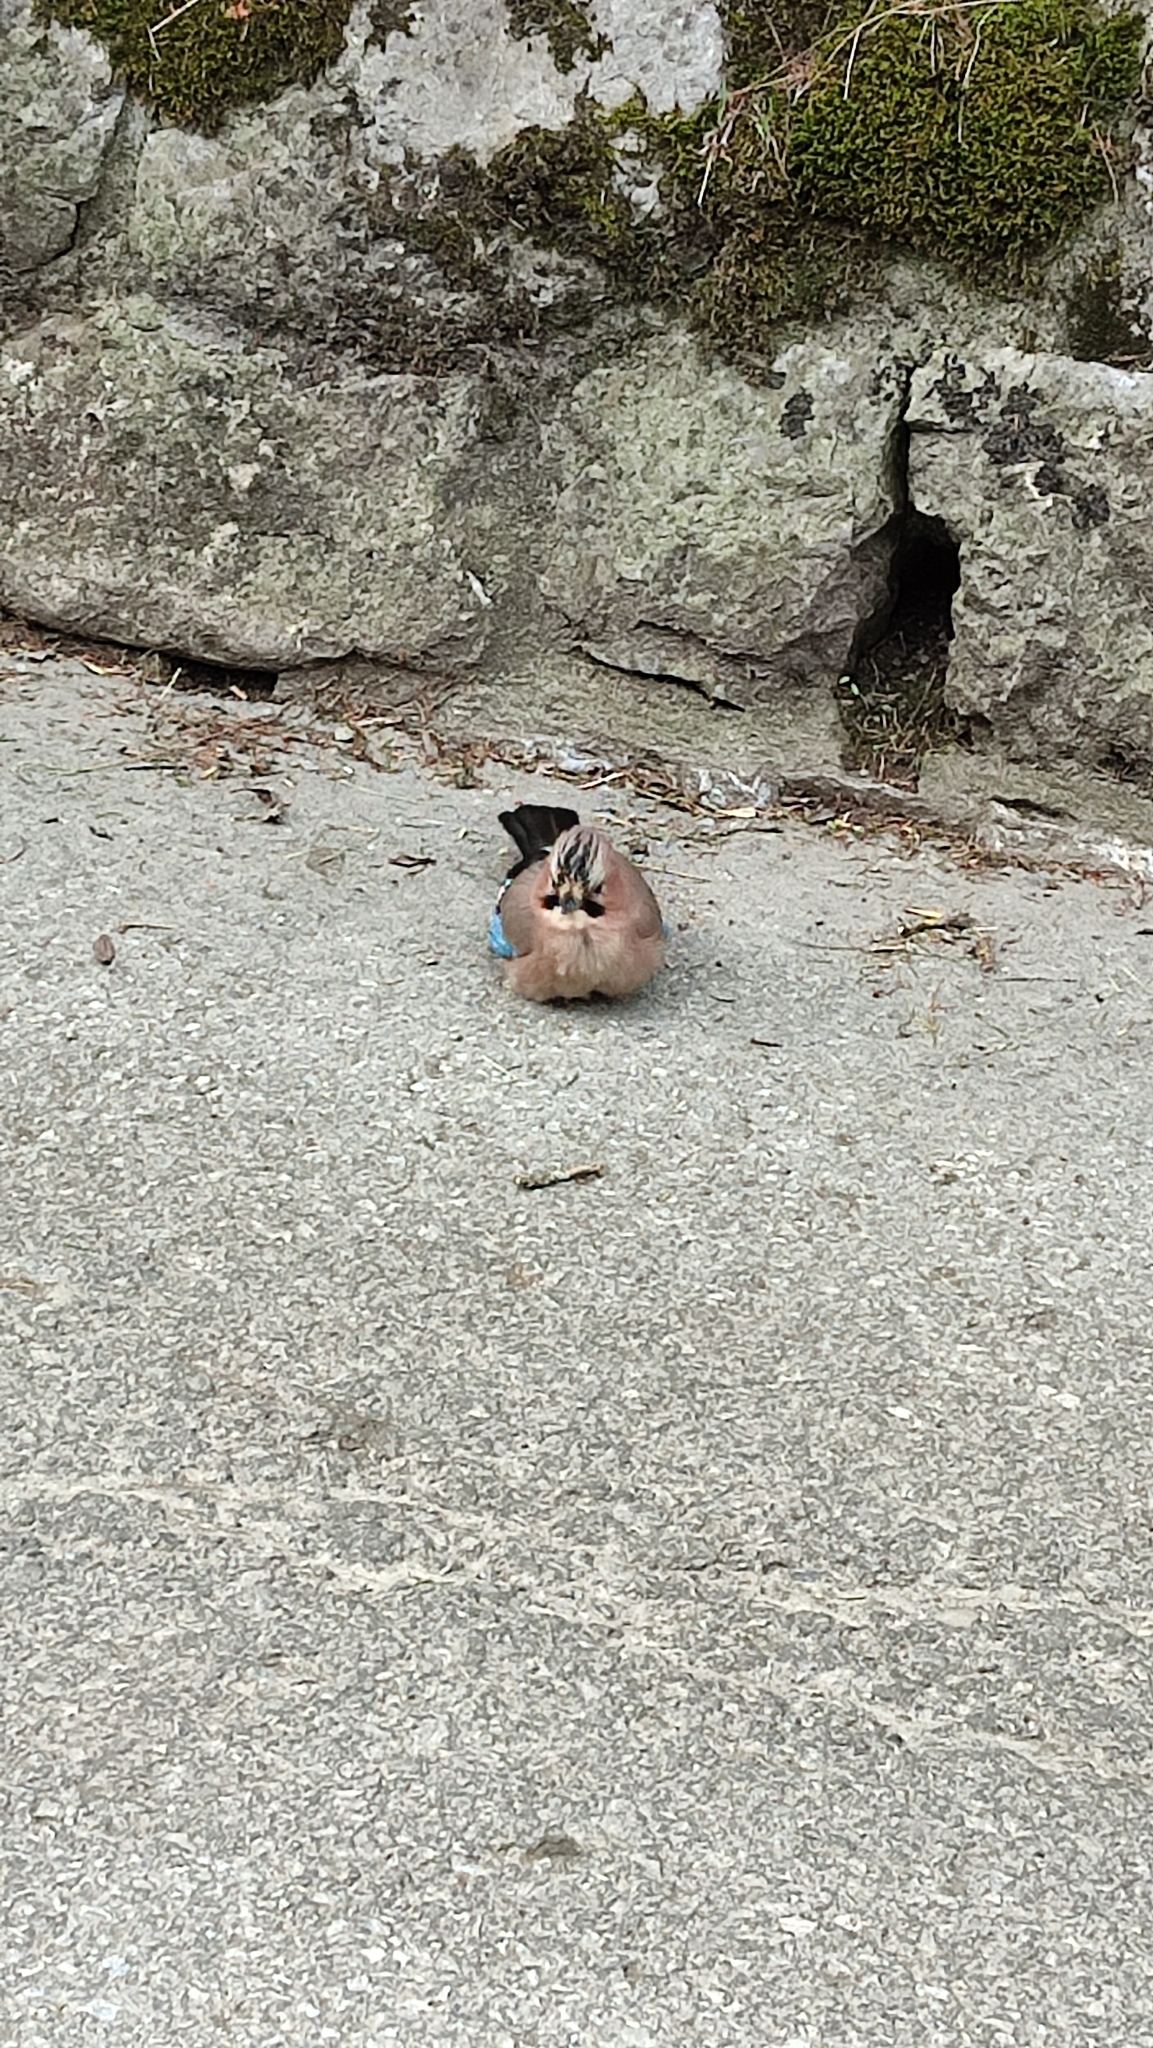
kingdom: Animalia
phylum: Chordata
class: Aves
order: Passeriformes
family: Corvidae
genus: Garrulus
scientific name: Garrulus glandarius
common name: Eurasian jay
